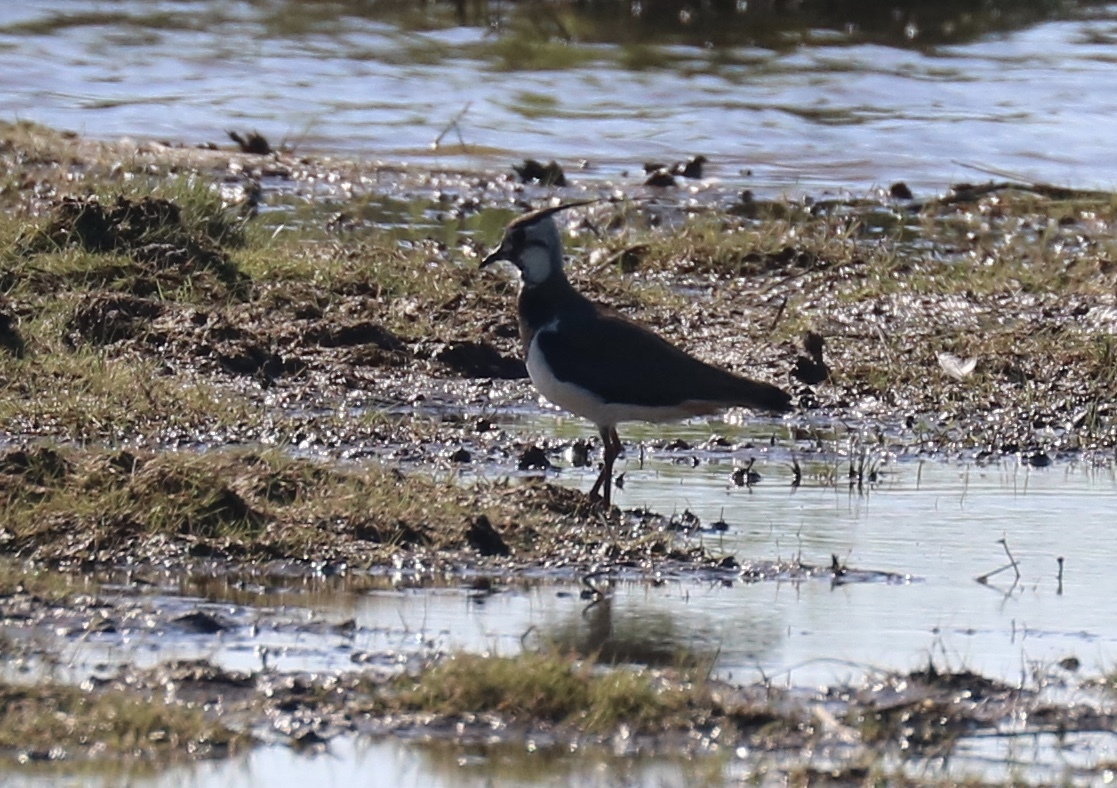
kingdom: Animalia
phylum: Chordata
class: Aves
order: Charadriiformes
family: Charadriidae
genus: Vanellus
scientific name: Vanellus vanellus
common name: Northern lapwing
